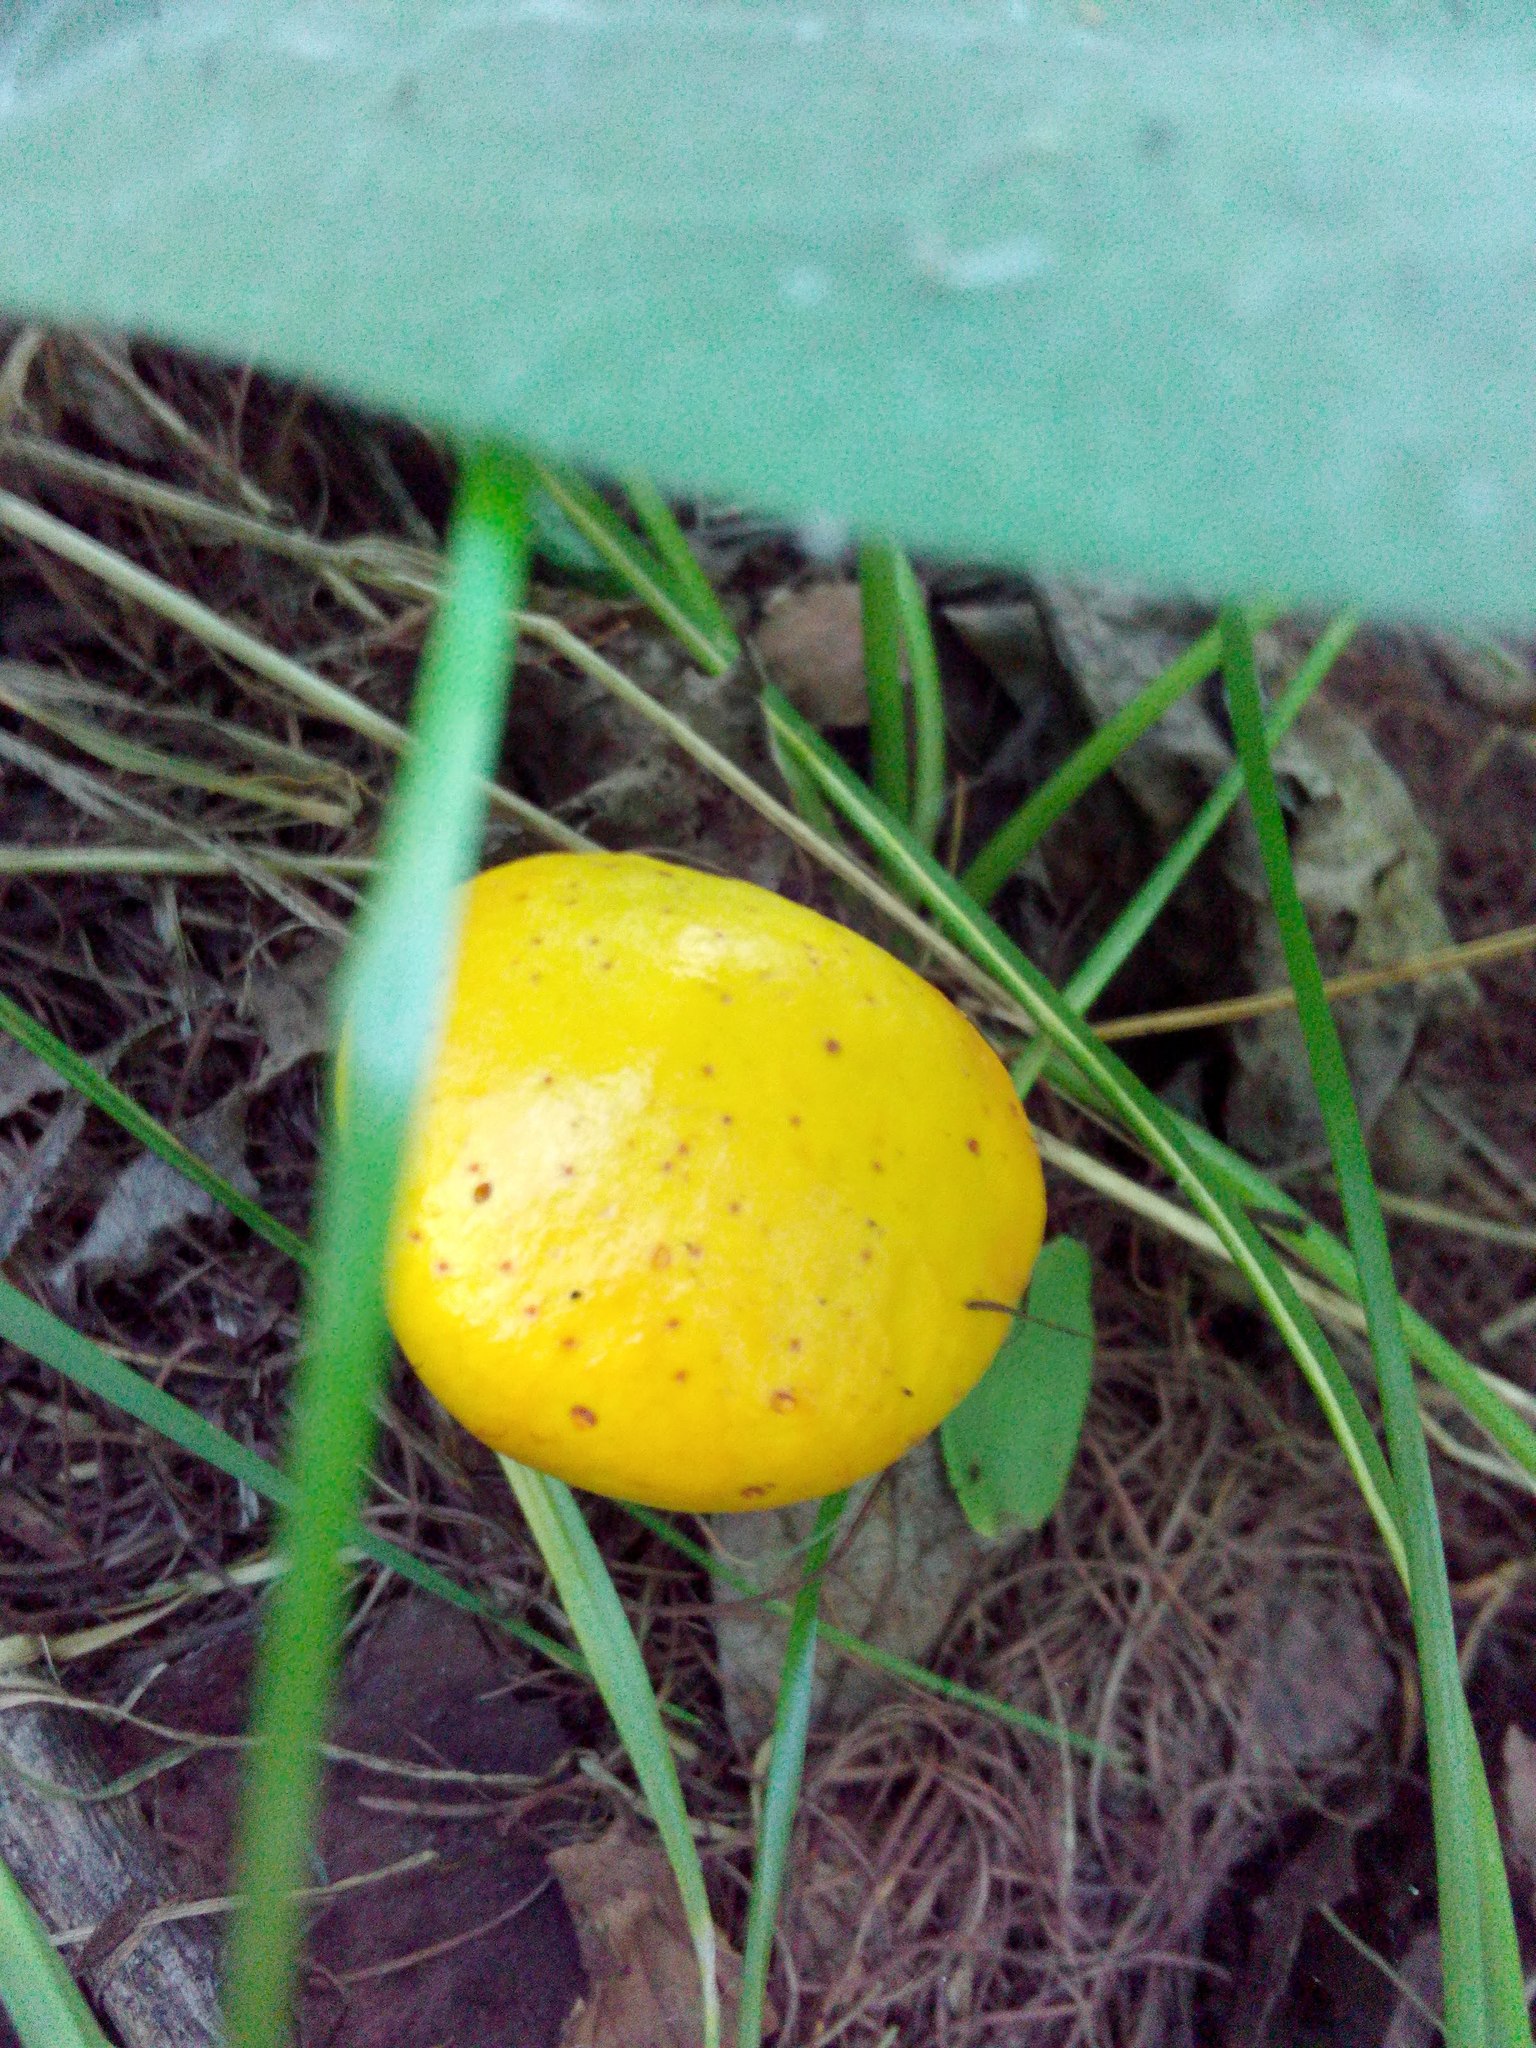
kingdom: Fungi
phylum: Basidiomycota
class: Agaricomycetes
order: Boletales
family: Suillaceae
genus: Suillus
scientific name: Suillus grevillei
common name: Larch bolete
